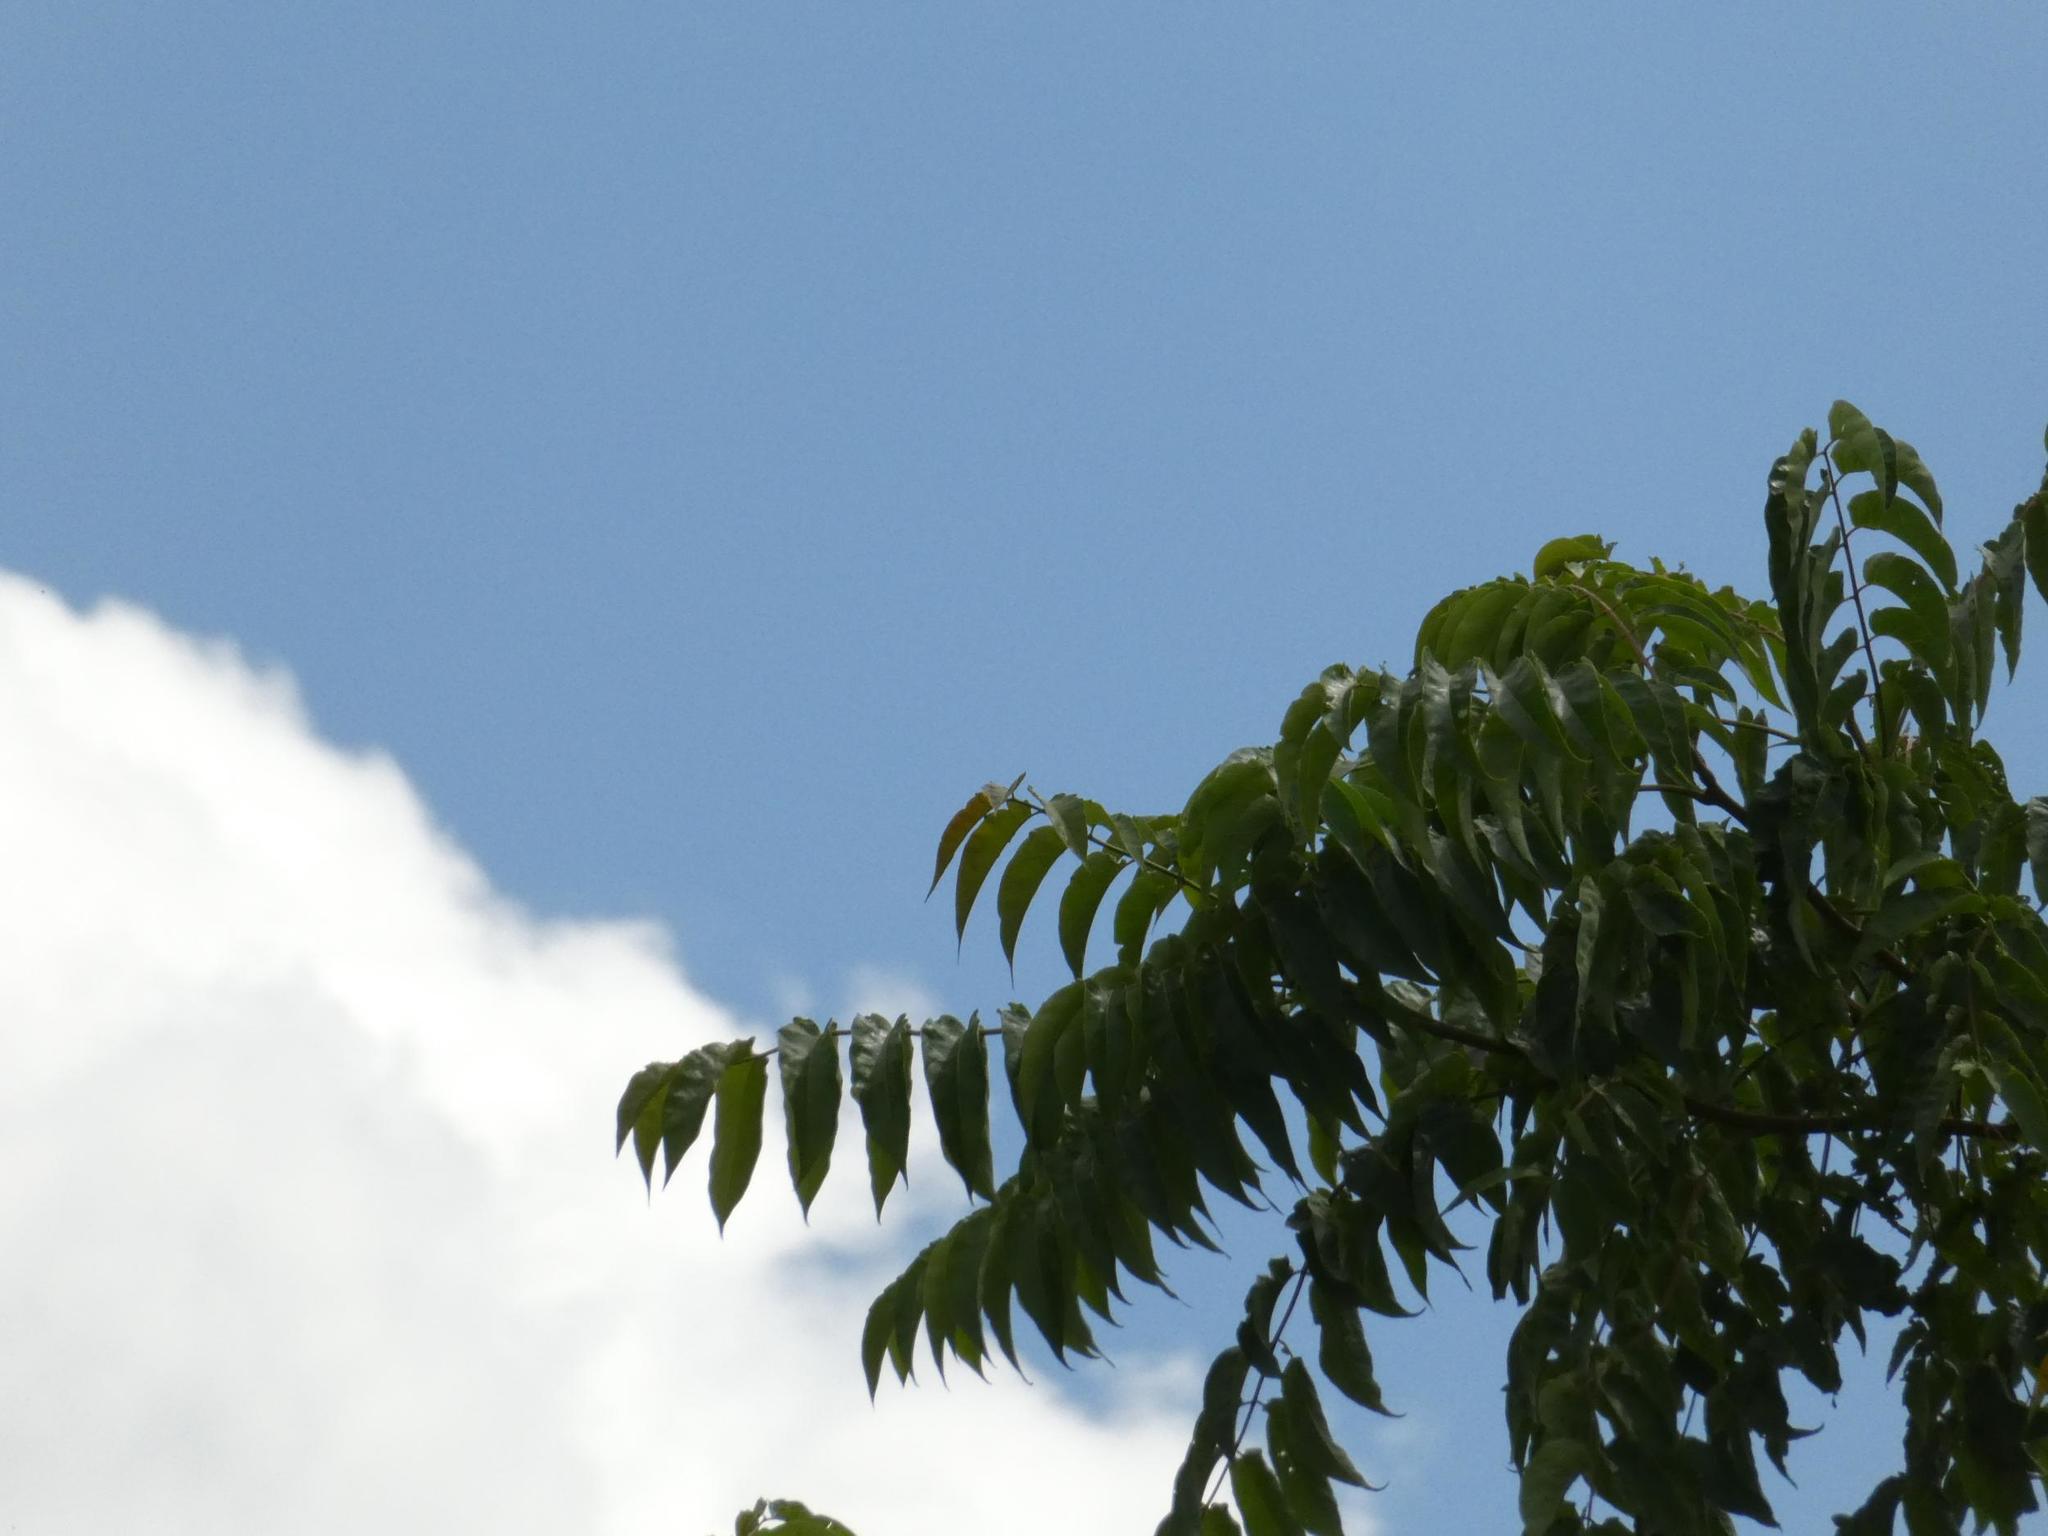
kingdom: Plantae
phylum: Tracheophyta
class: Magnoliopsida
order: Sapindales
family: Simaroubaceae
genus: Ailanthus
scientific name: Ailanthus altissima
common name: Tree-of-heaven
